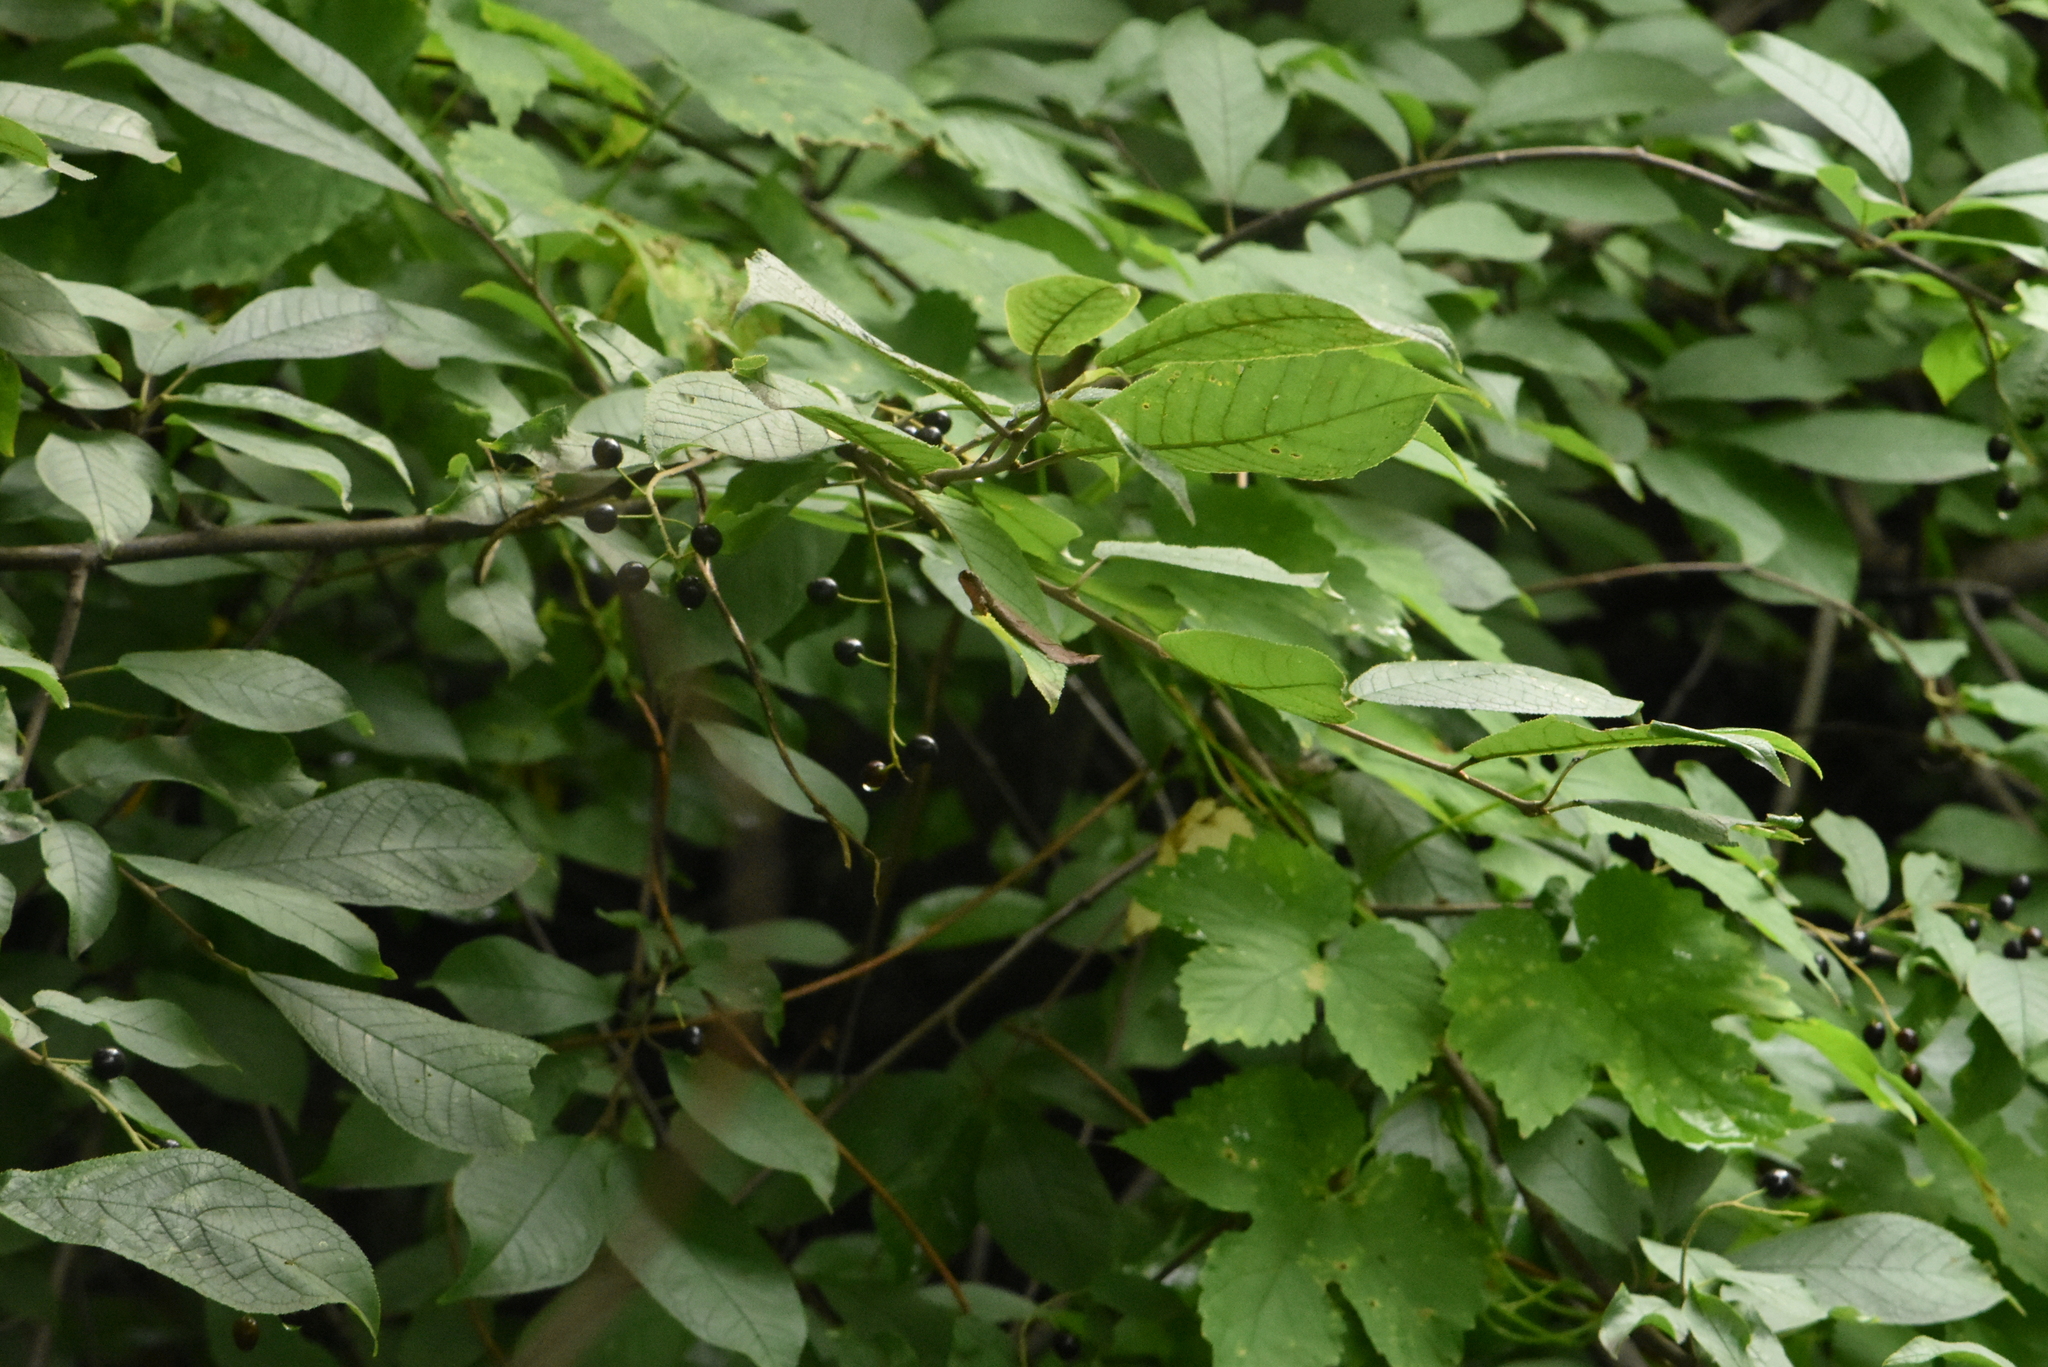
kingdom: Plantae
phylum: Tracheophyta
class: Magnoliopsida
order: Rosales
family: Rosaceae
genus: Prunus
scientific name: Prunus padus
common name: Bird cherry
